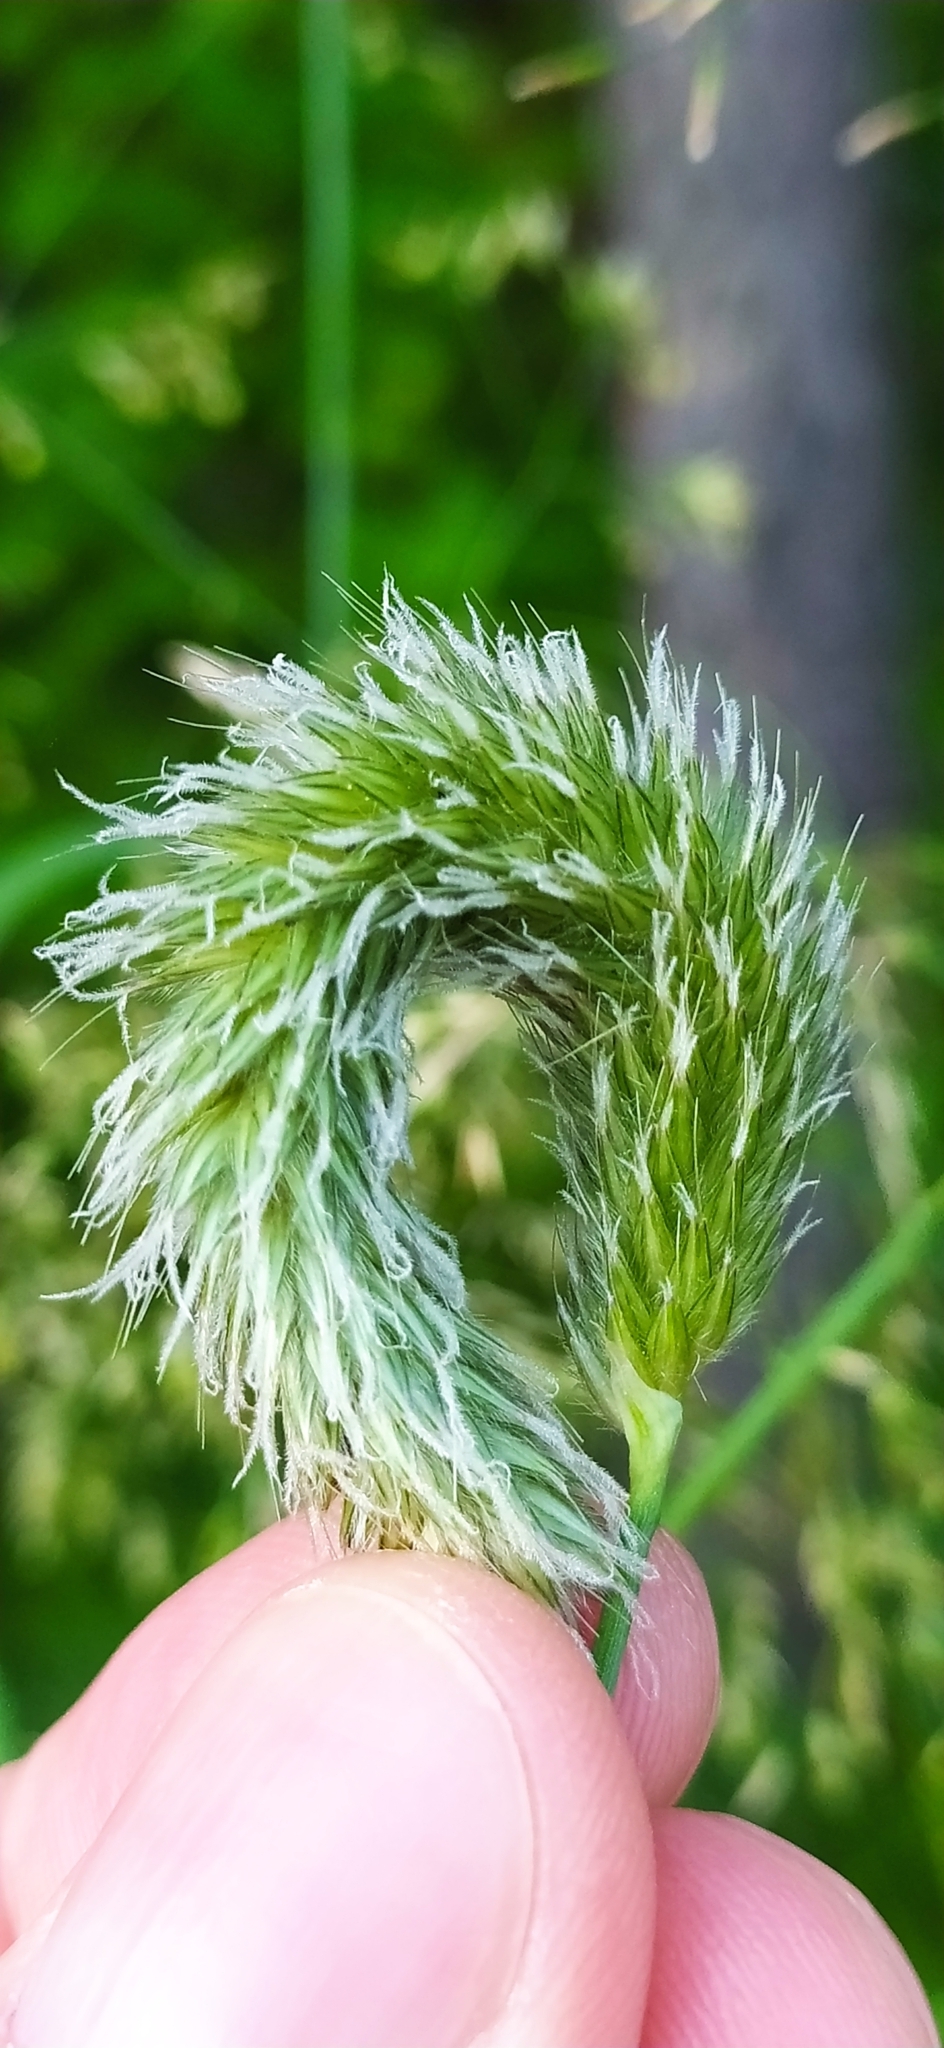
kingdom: Plantae
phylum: Tracheophyta
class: Liliopsida
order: Poales
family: Poaceae
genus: Alopecurus
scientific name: Alopecurus pratensis
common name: Meadow foxtail
